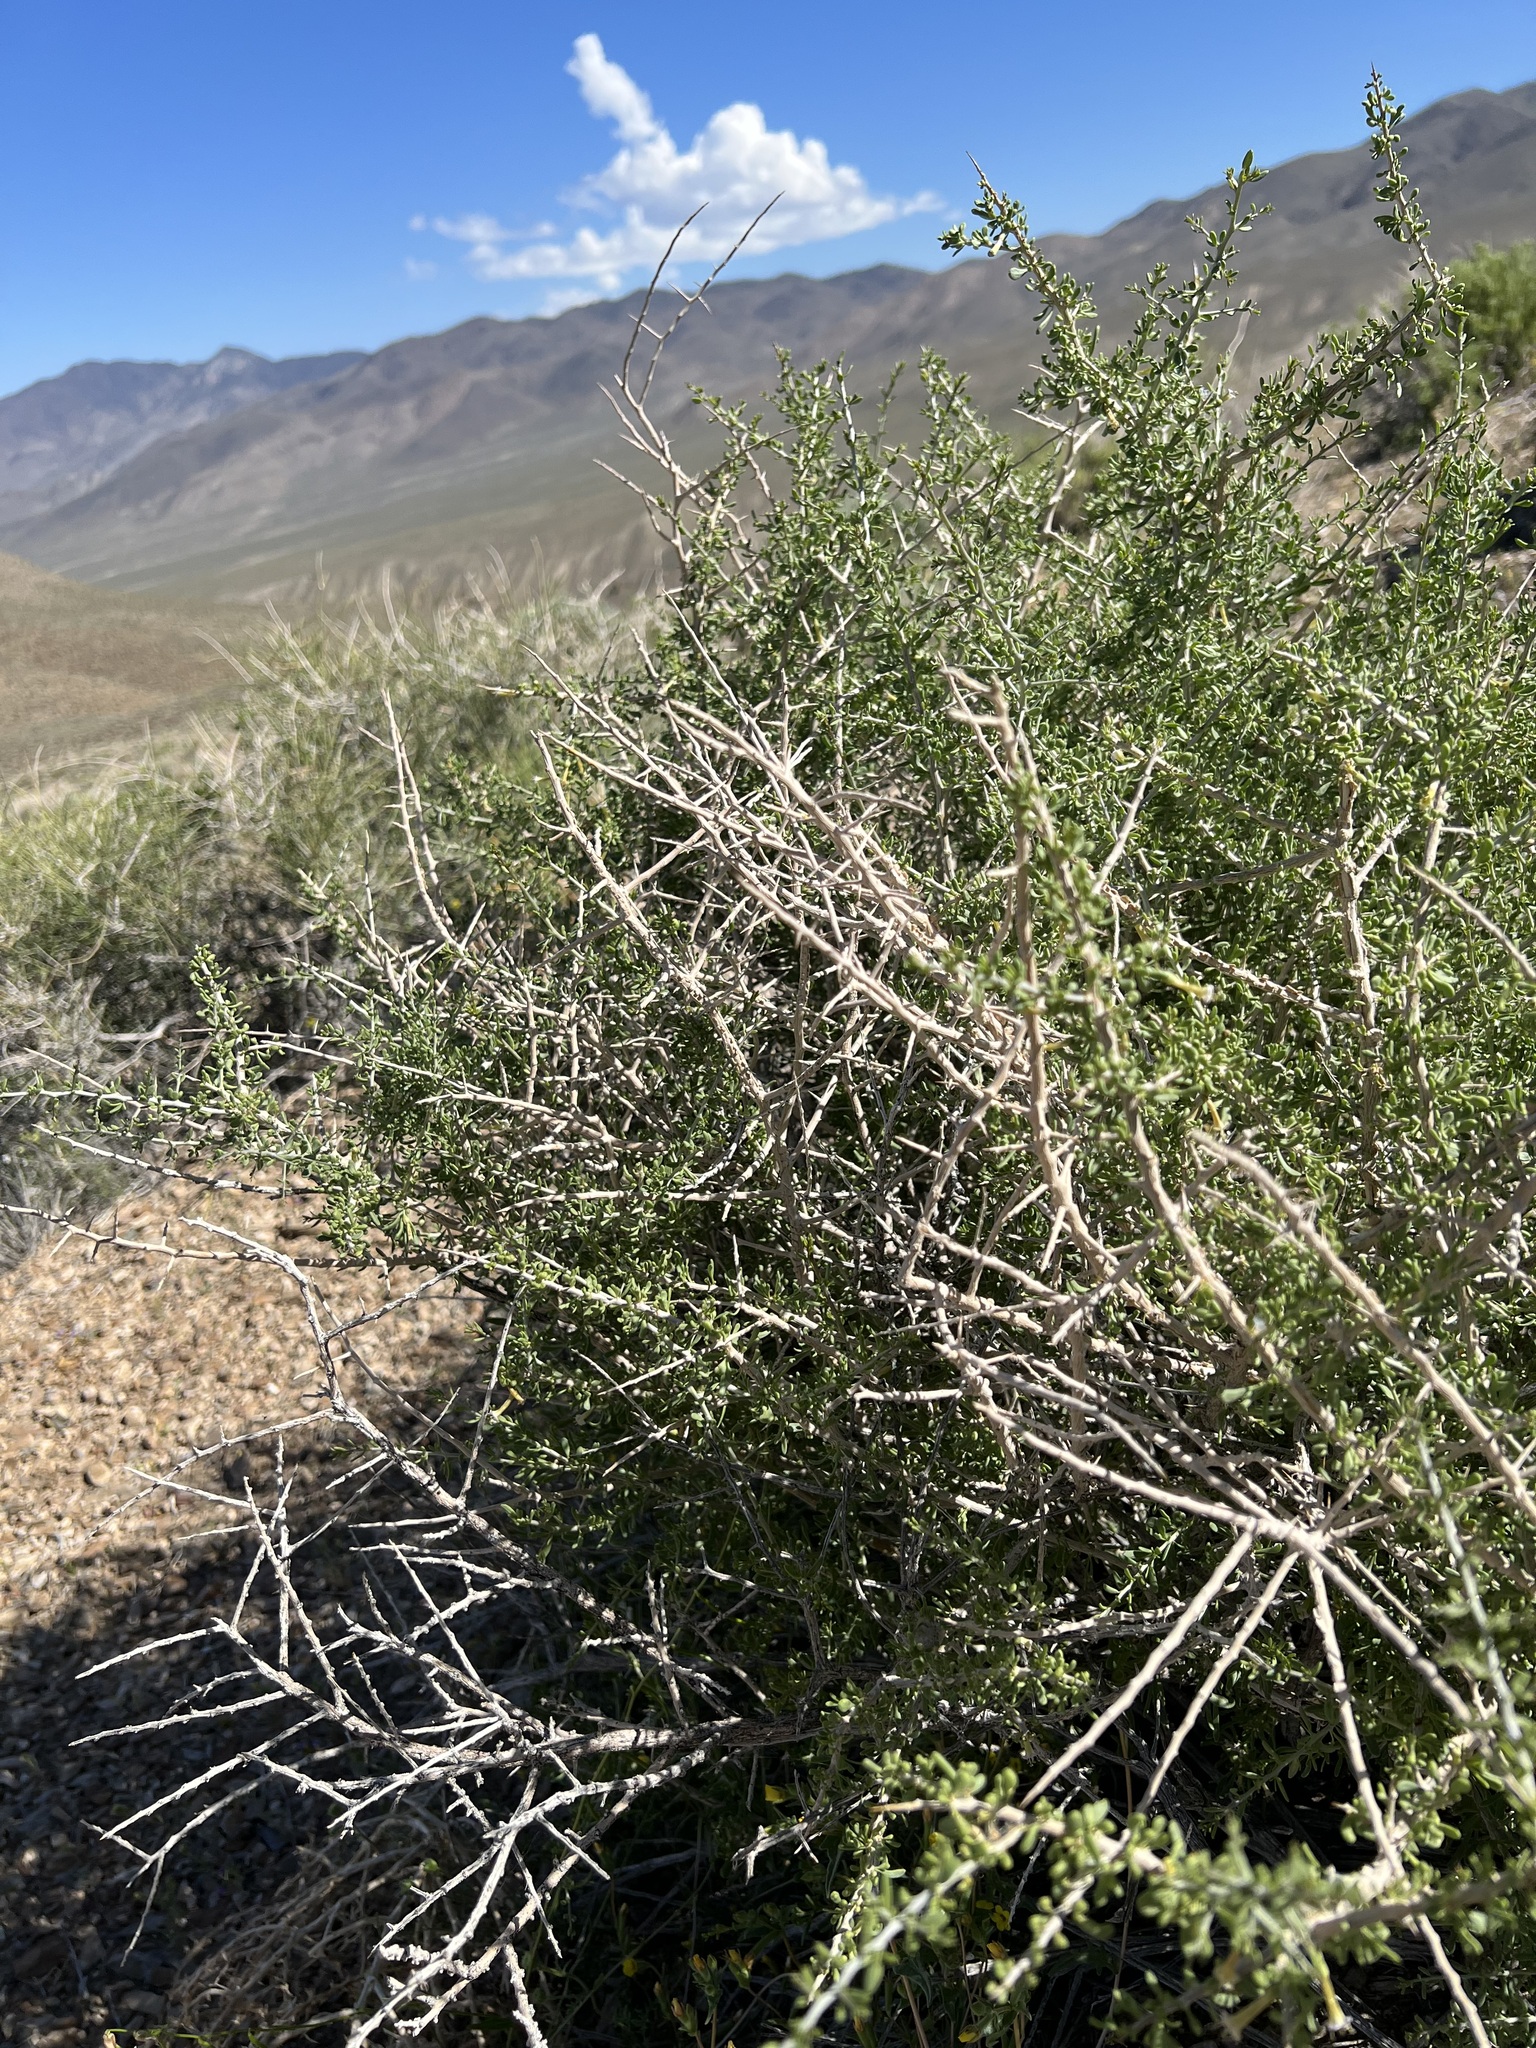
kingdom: Plantae
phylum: Tracheophyta
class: Magnoliopsida
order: Solanales
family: Solanaceae
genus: Lycium
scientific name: Lycium andersonii
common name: Water-jacket
